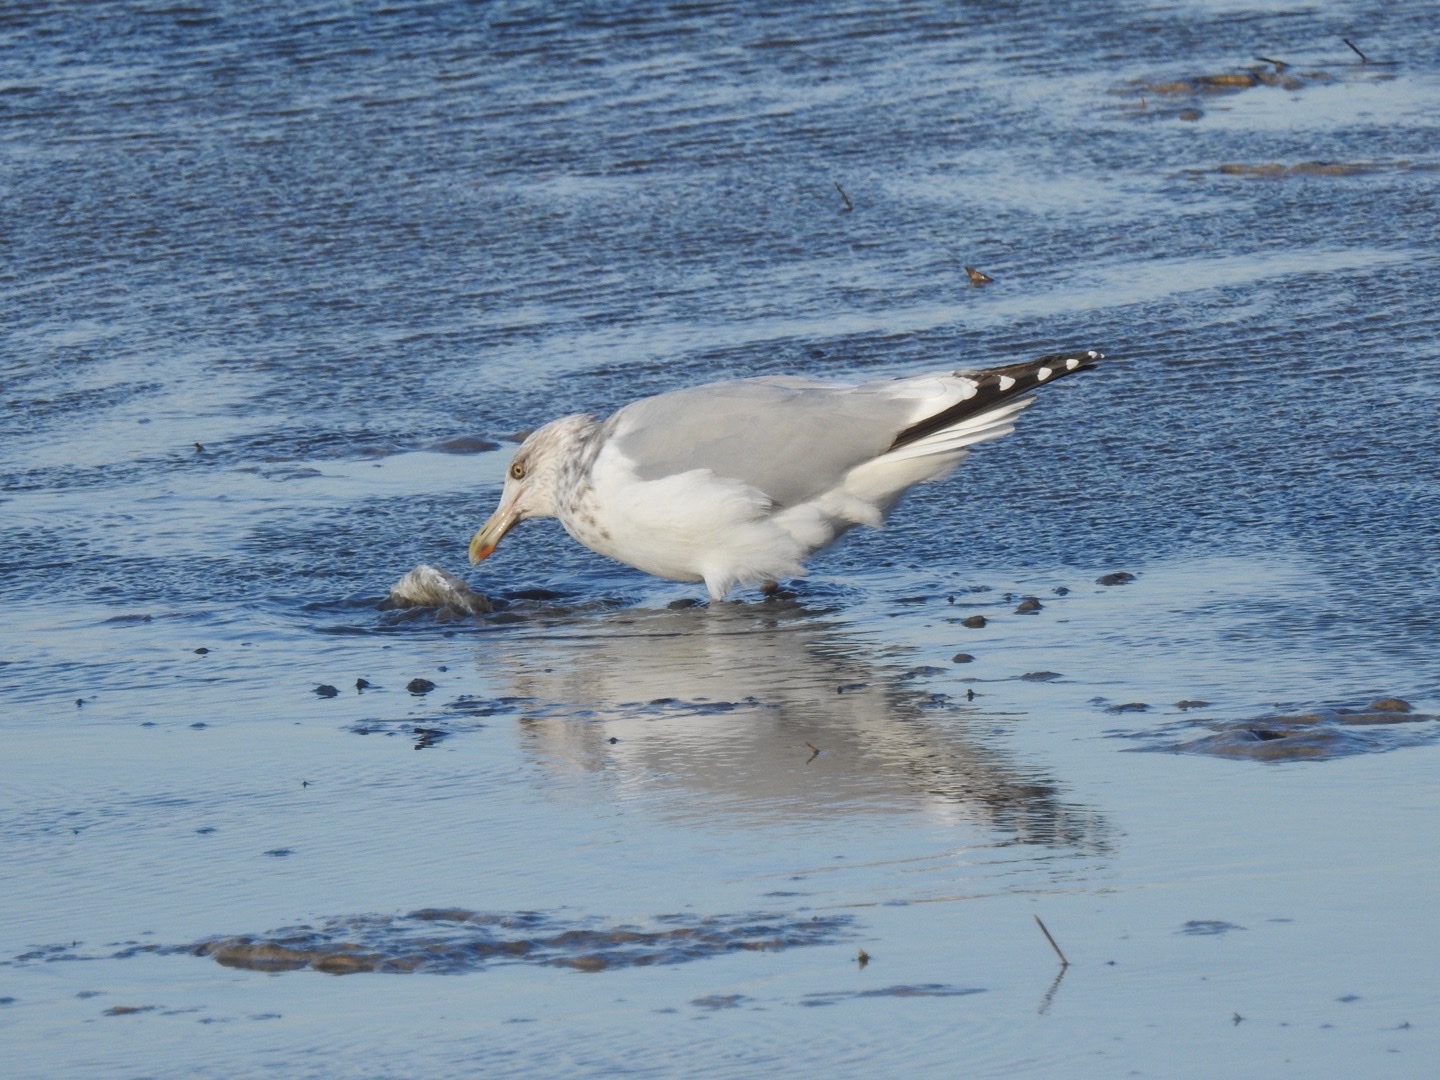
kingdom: Animalia
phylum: Chordata
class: Aves
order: Charadriiformes
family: Laridae
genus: Larus
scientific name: Larus argentatus
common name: Herring gull
